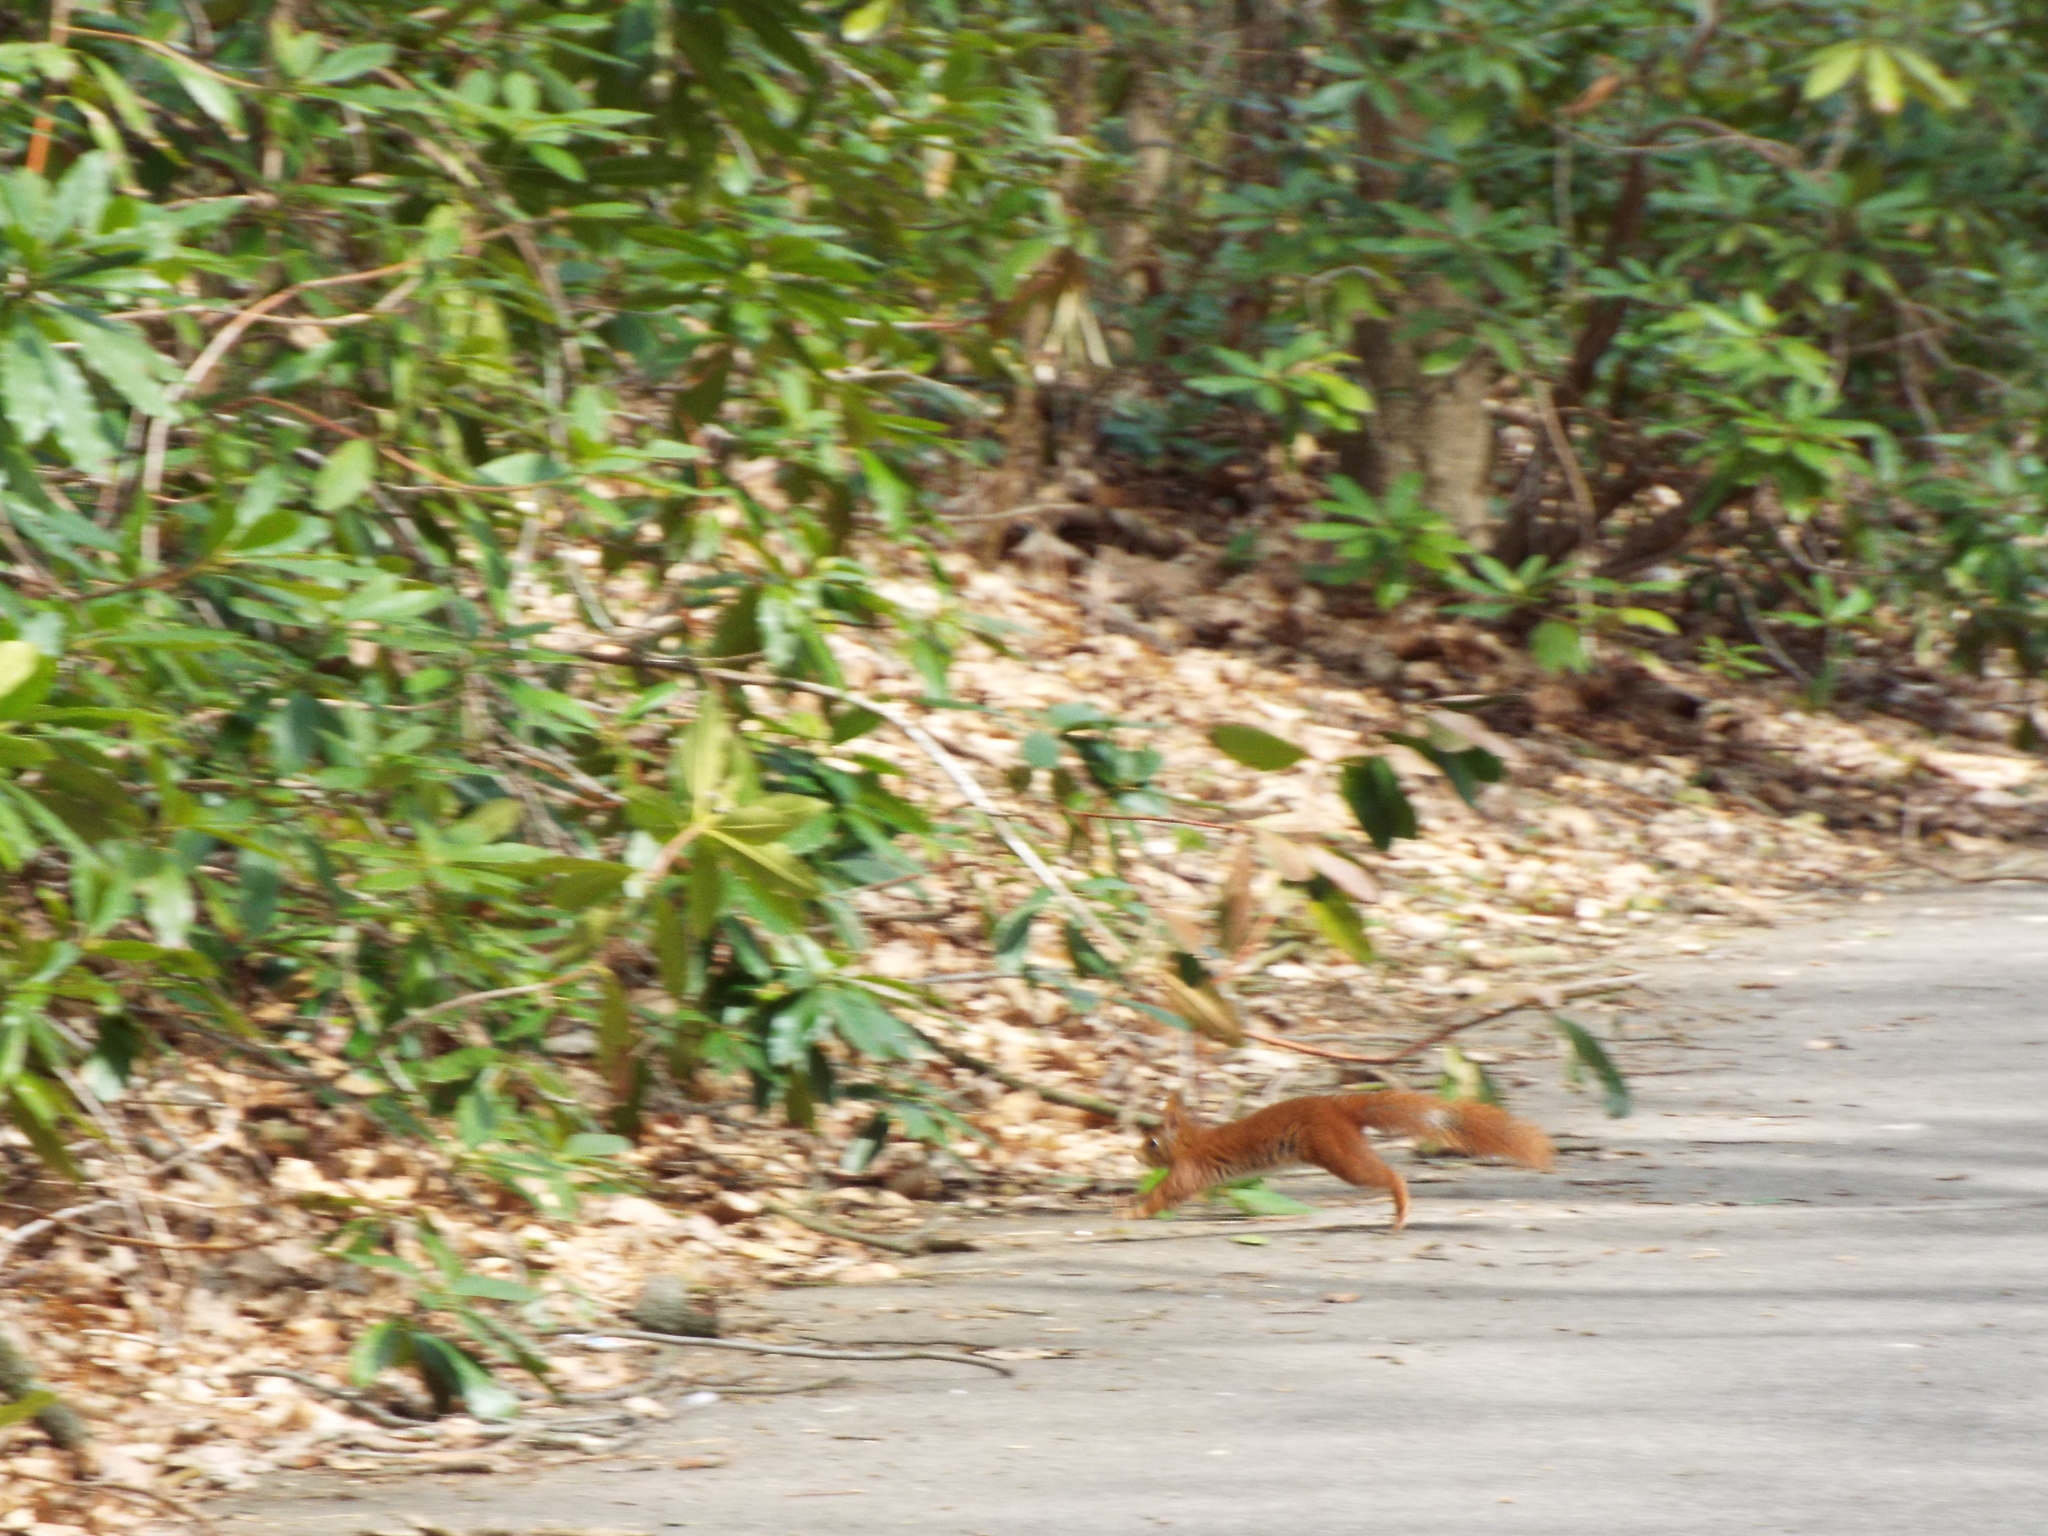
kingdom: Animalia
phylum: Chordata
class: Mammalia
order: Rodentia
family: Sciuridae
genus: Sciurus
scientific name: Sciurus vulgaris
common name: Eurasian red squirrel
